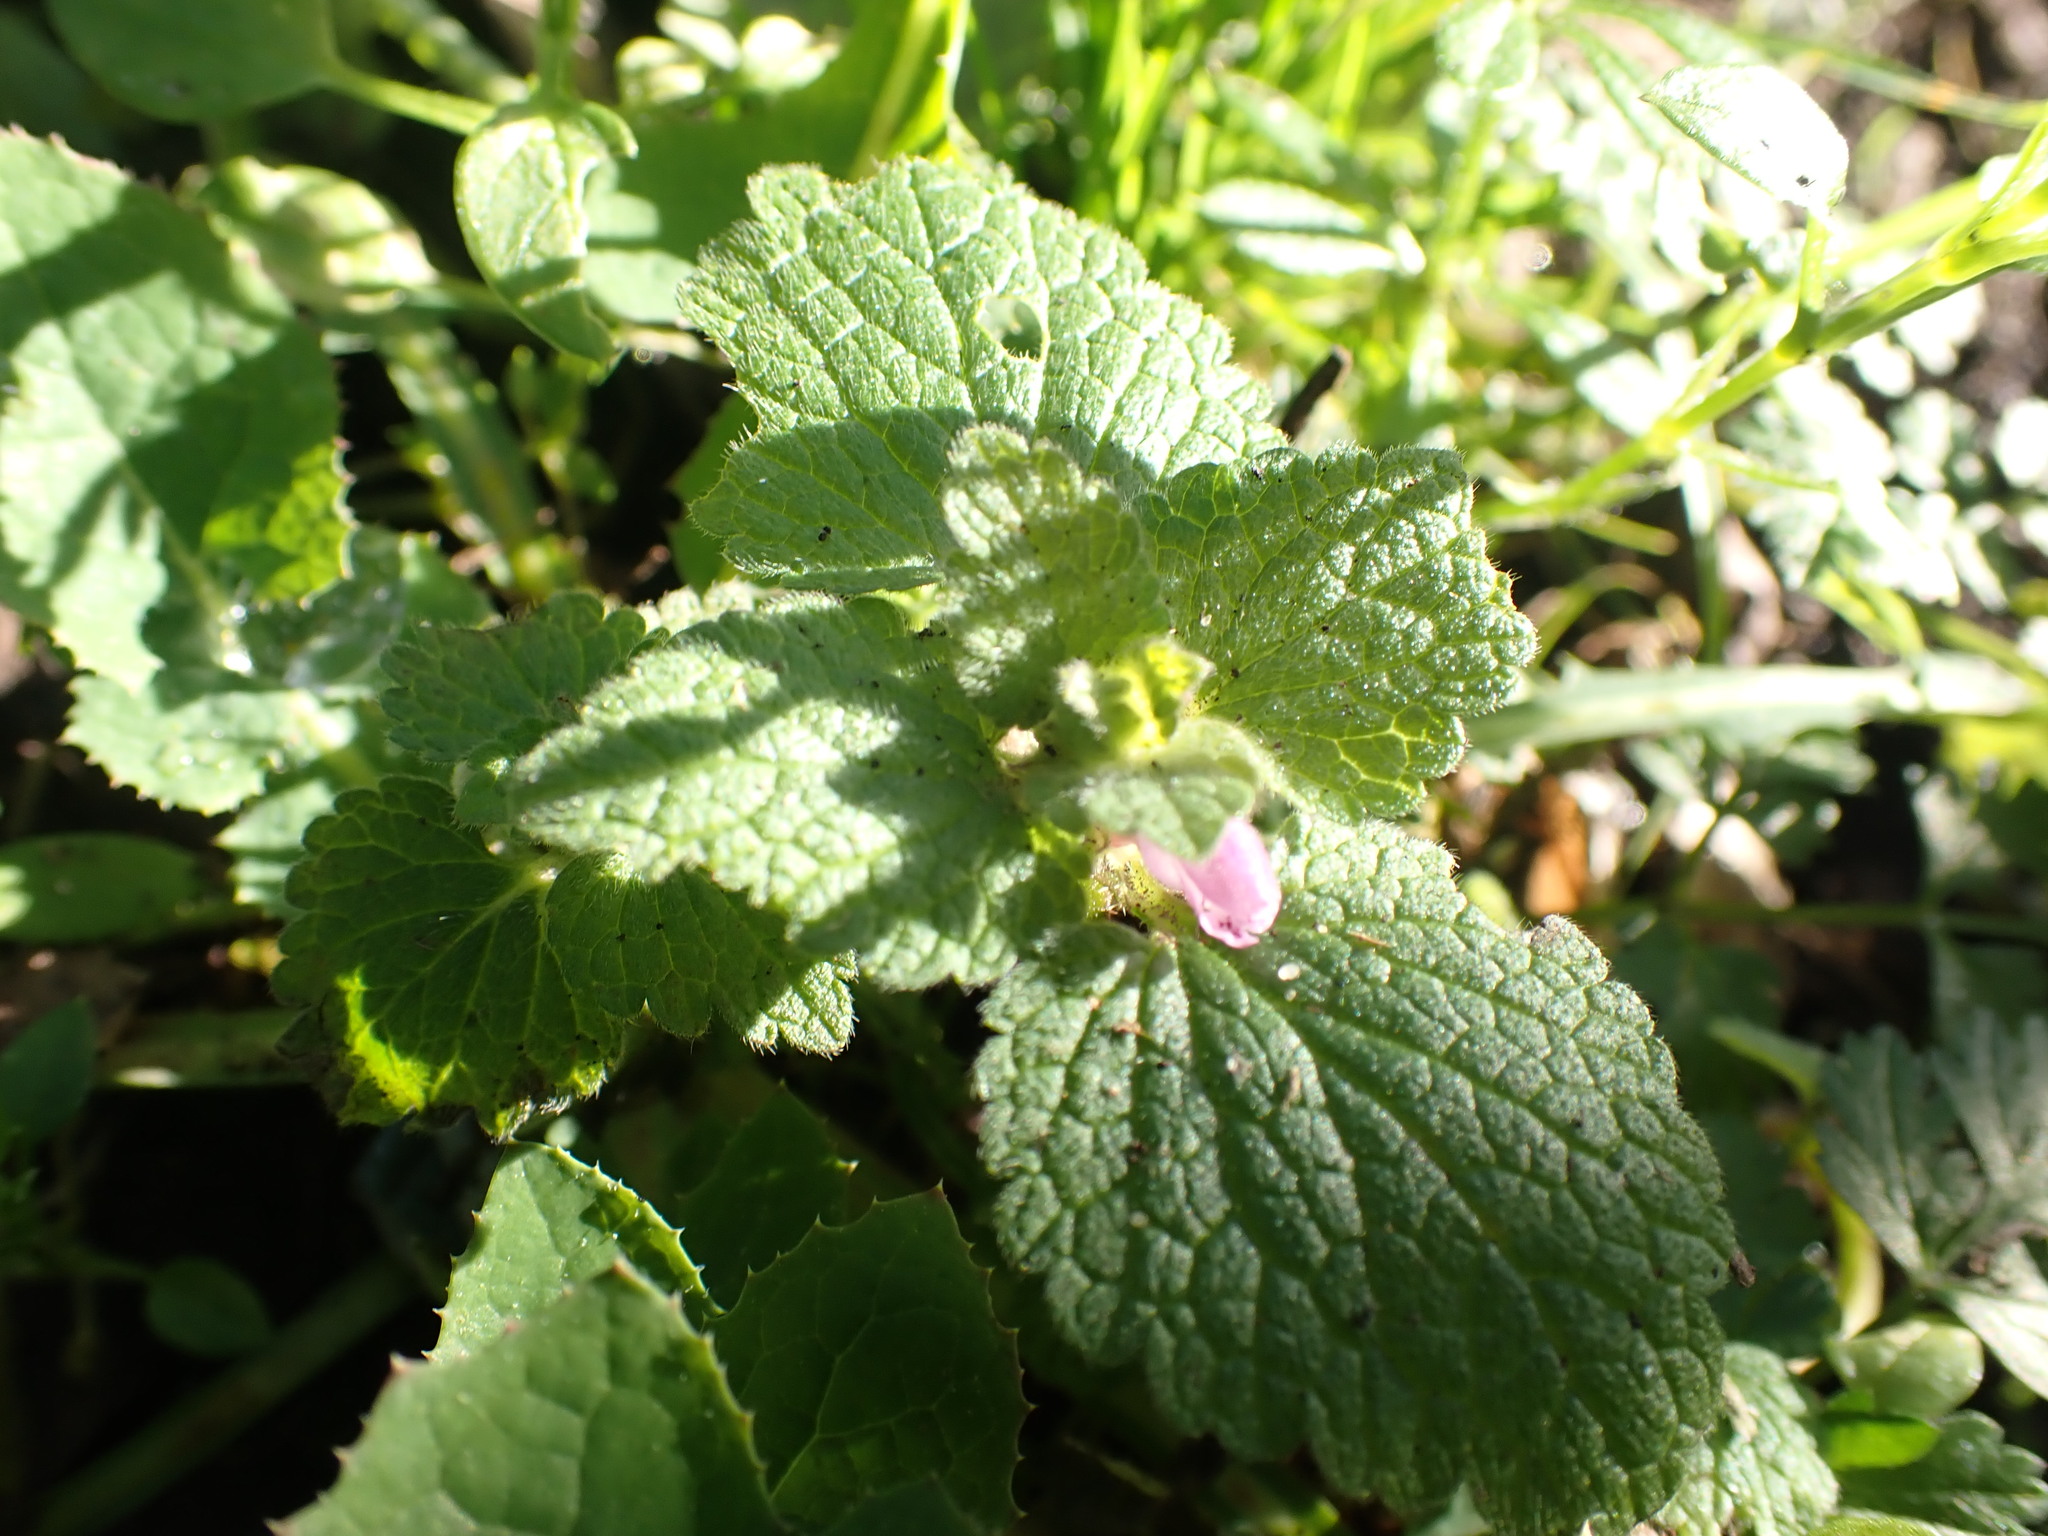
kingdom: Plantae
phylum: Tracheophyta
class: Magnoliopsida
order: Lamiales
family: Lamiaceae
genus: Lamium
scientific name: Lamium purpureum
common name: Red dead-nettle
